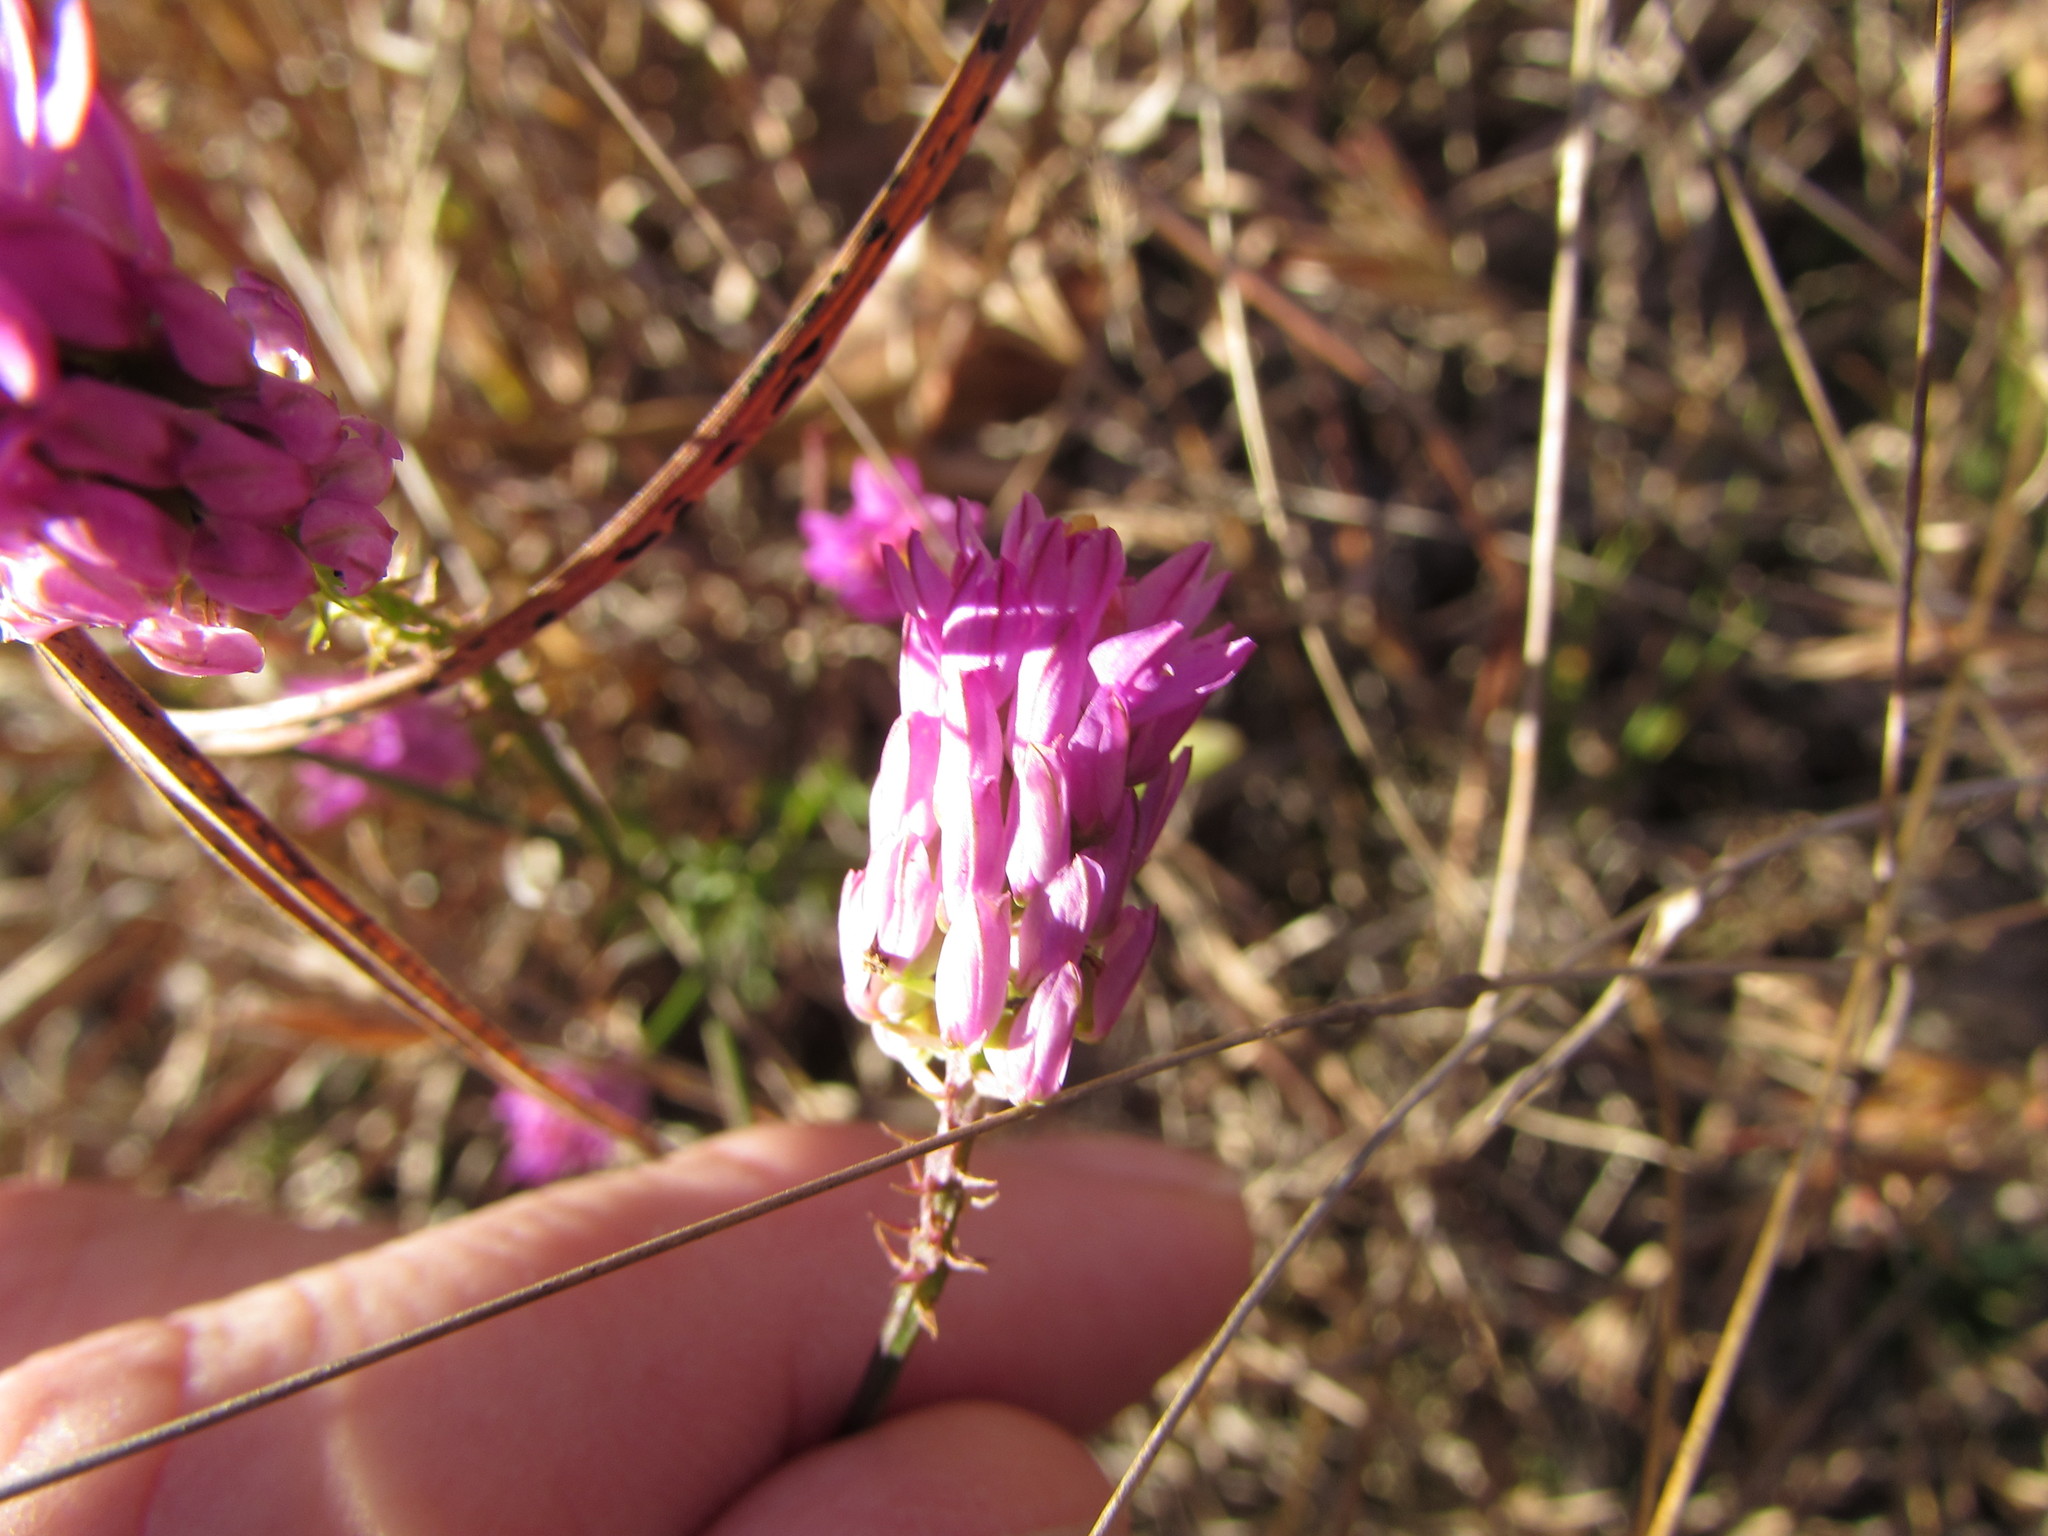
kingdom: Plantae
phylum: Tracheophyta
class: Magnoliopsida
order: Fabales
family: Polygalaceae
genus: Polygala
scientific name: Polygala curtissii
